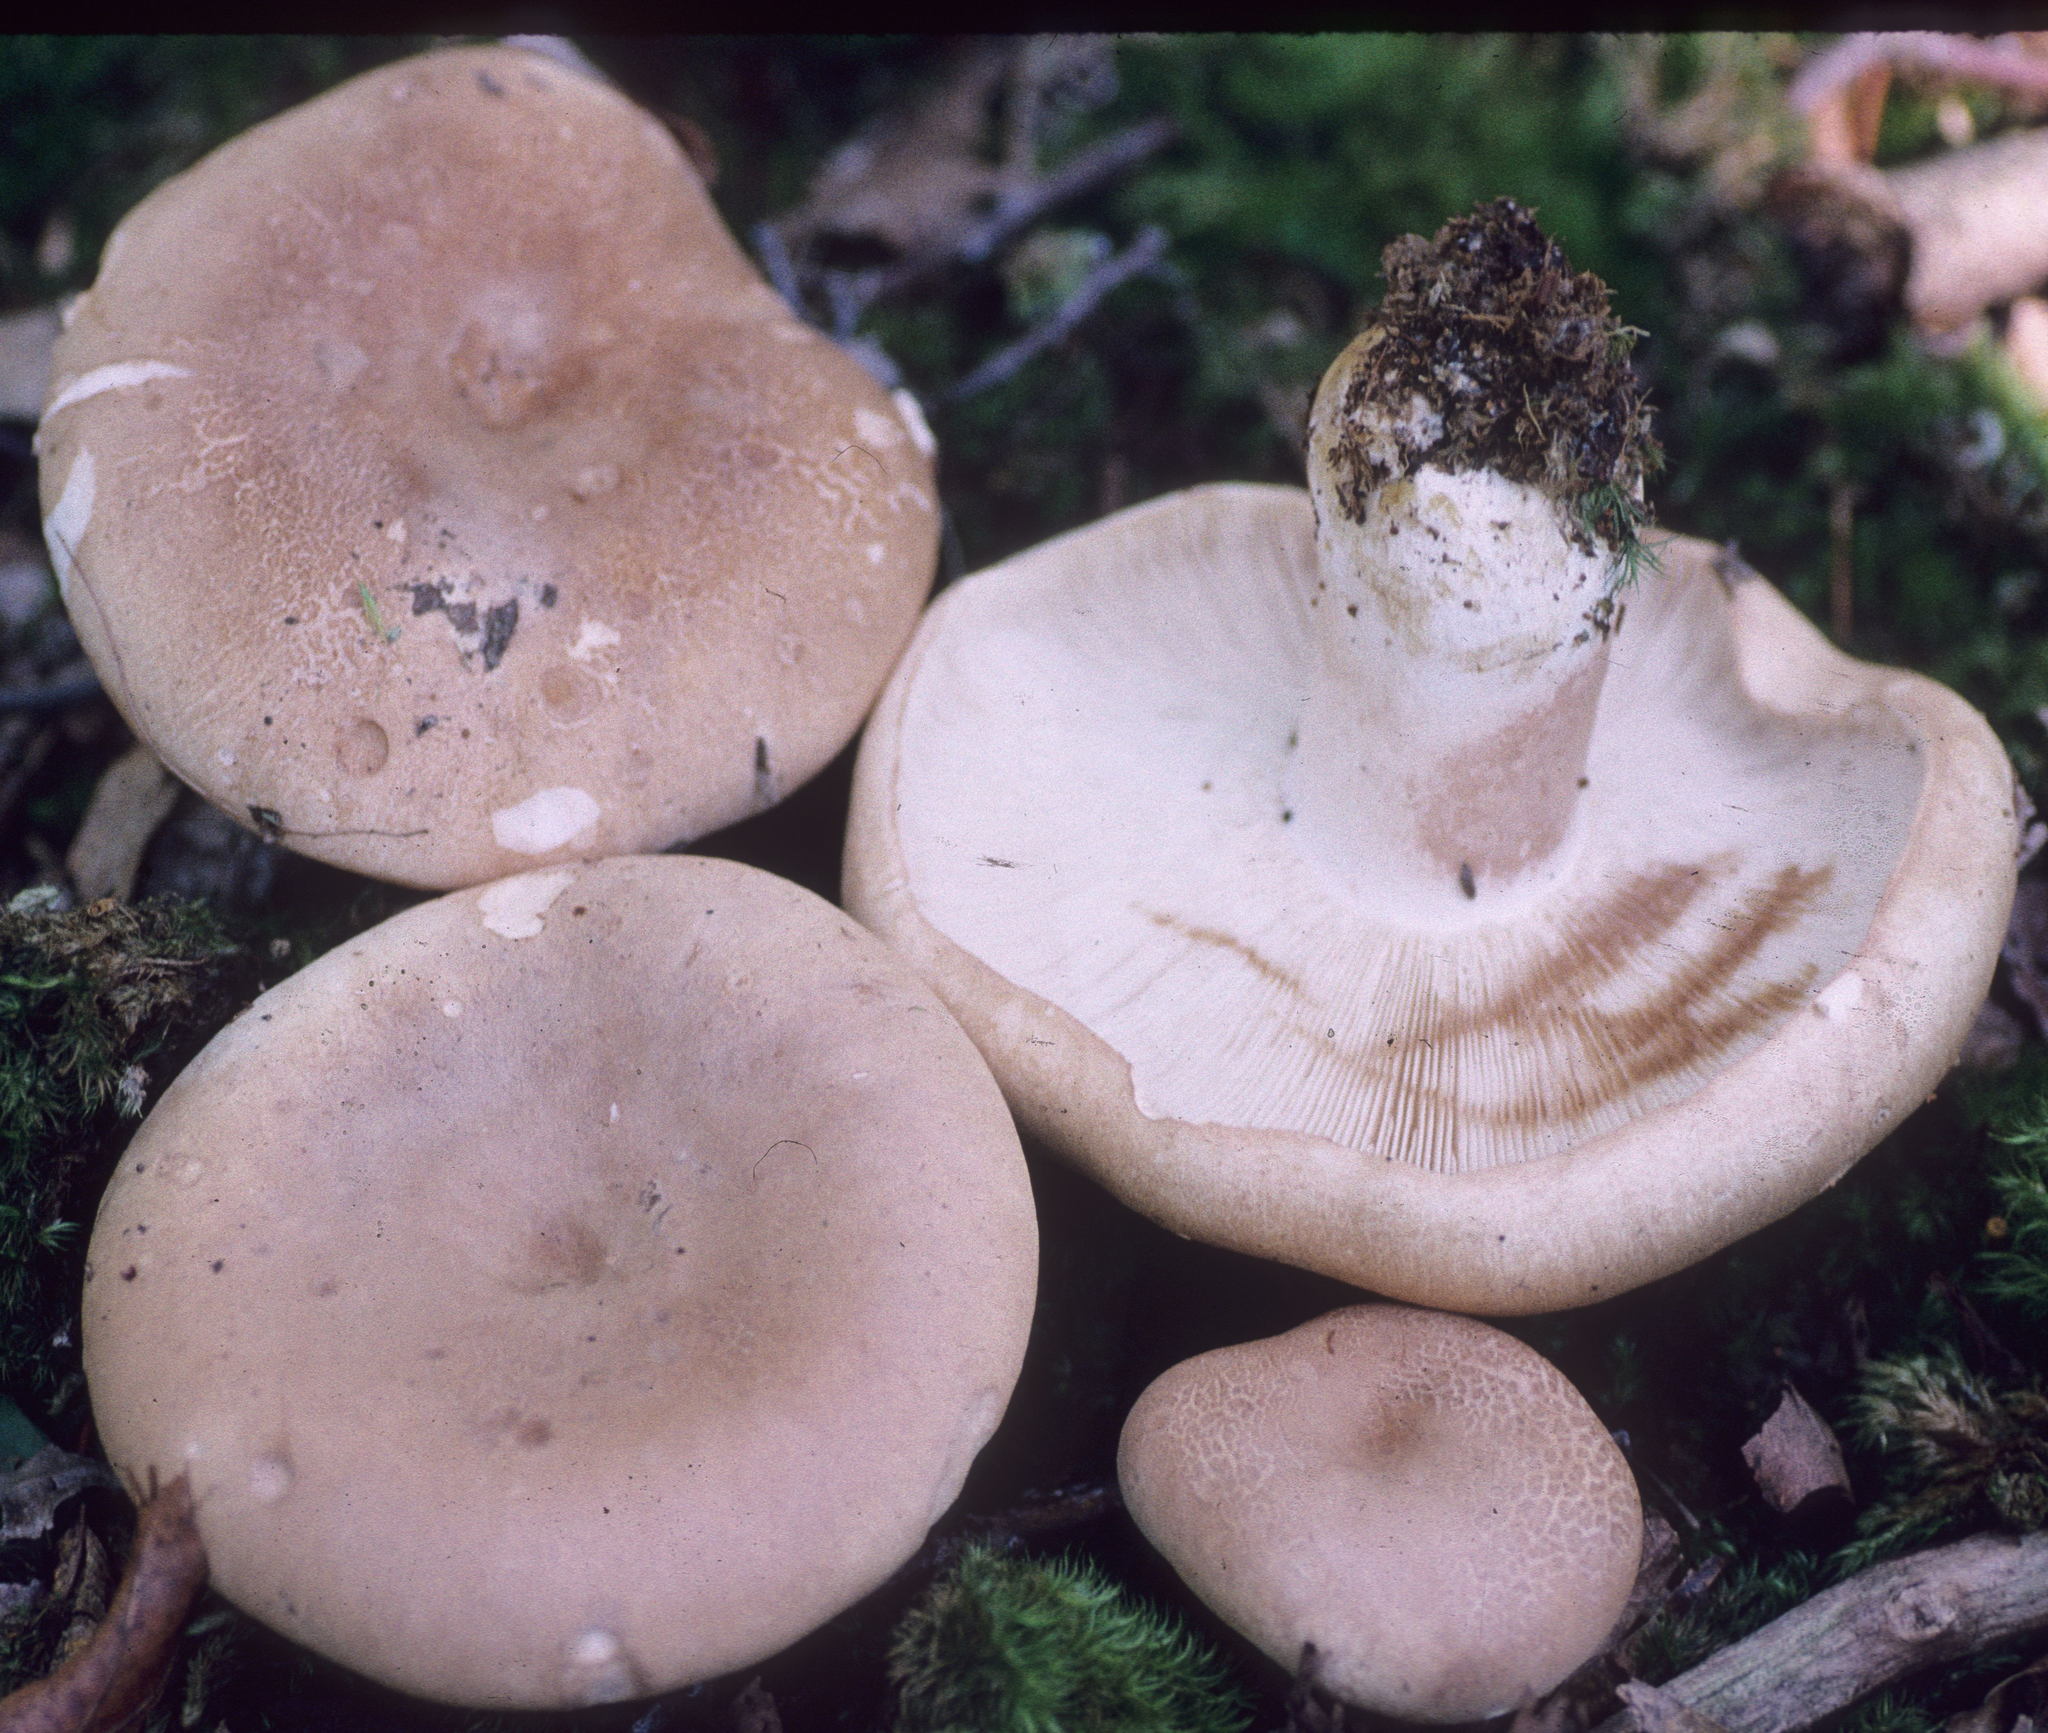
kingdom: Fungi
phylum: Basidiomycota
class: Agaricomycetes
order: Russulales
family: Russulaceae
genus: Russula
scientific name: Russula compacta
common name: Fishbiscuit russula
